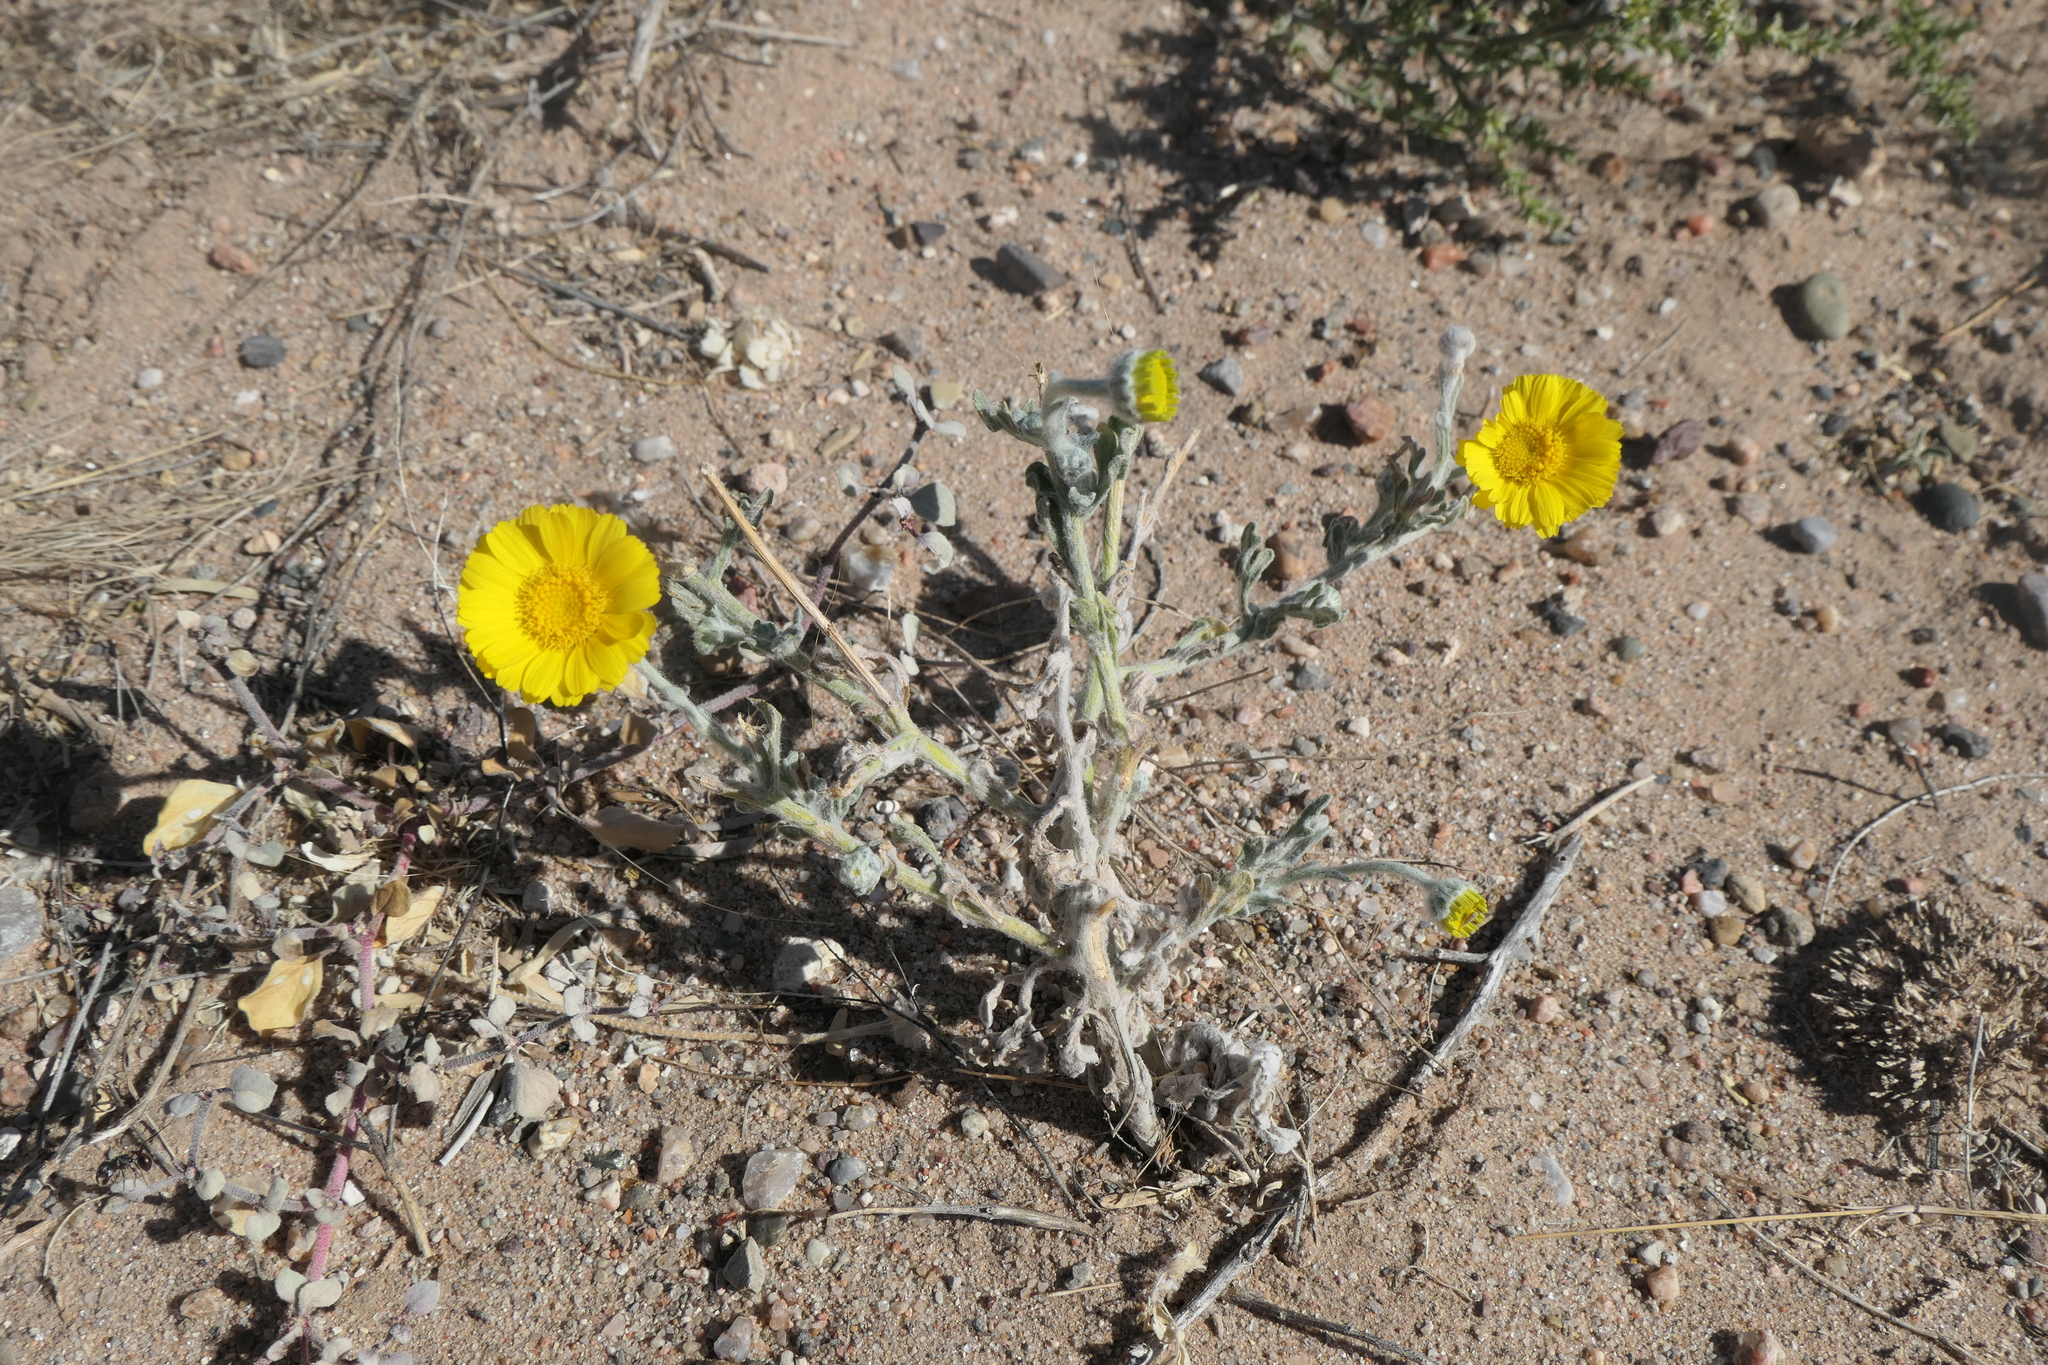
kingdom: Plantae
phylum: Tracheophyta
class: Magnoliopsida
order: Asterales
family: Asteraceae
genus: Baileya
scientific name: Baileya multiradiata
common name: Desert-marigold
